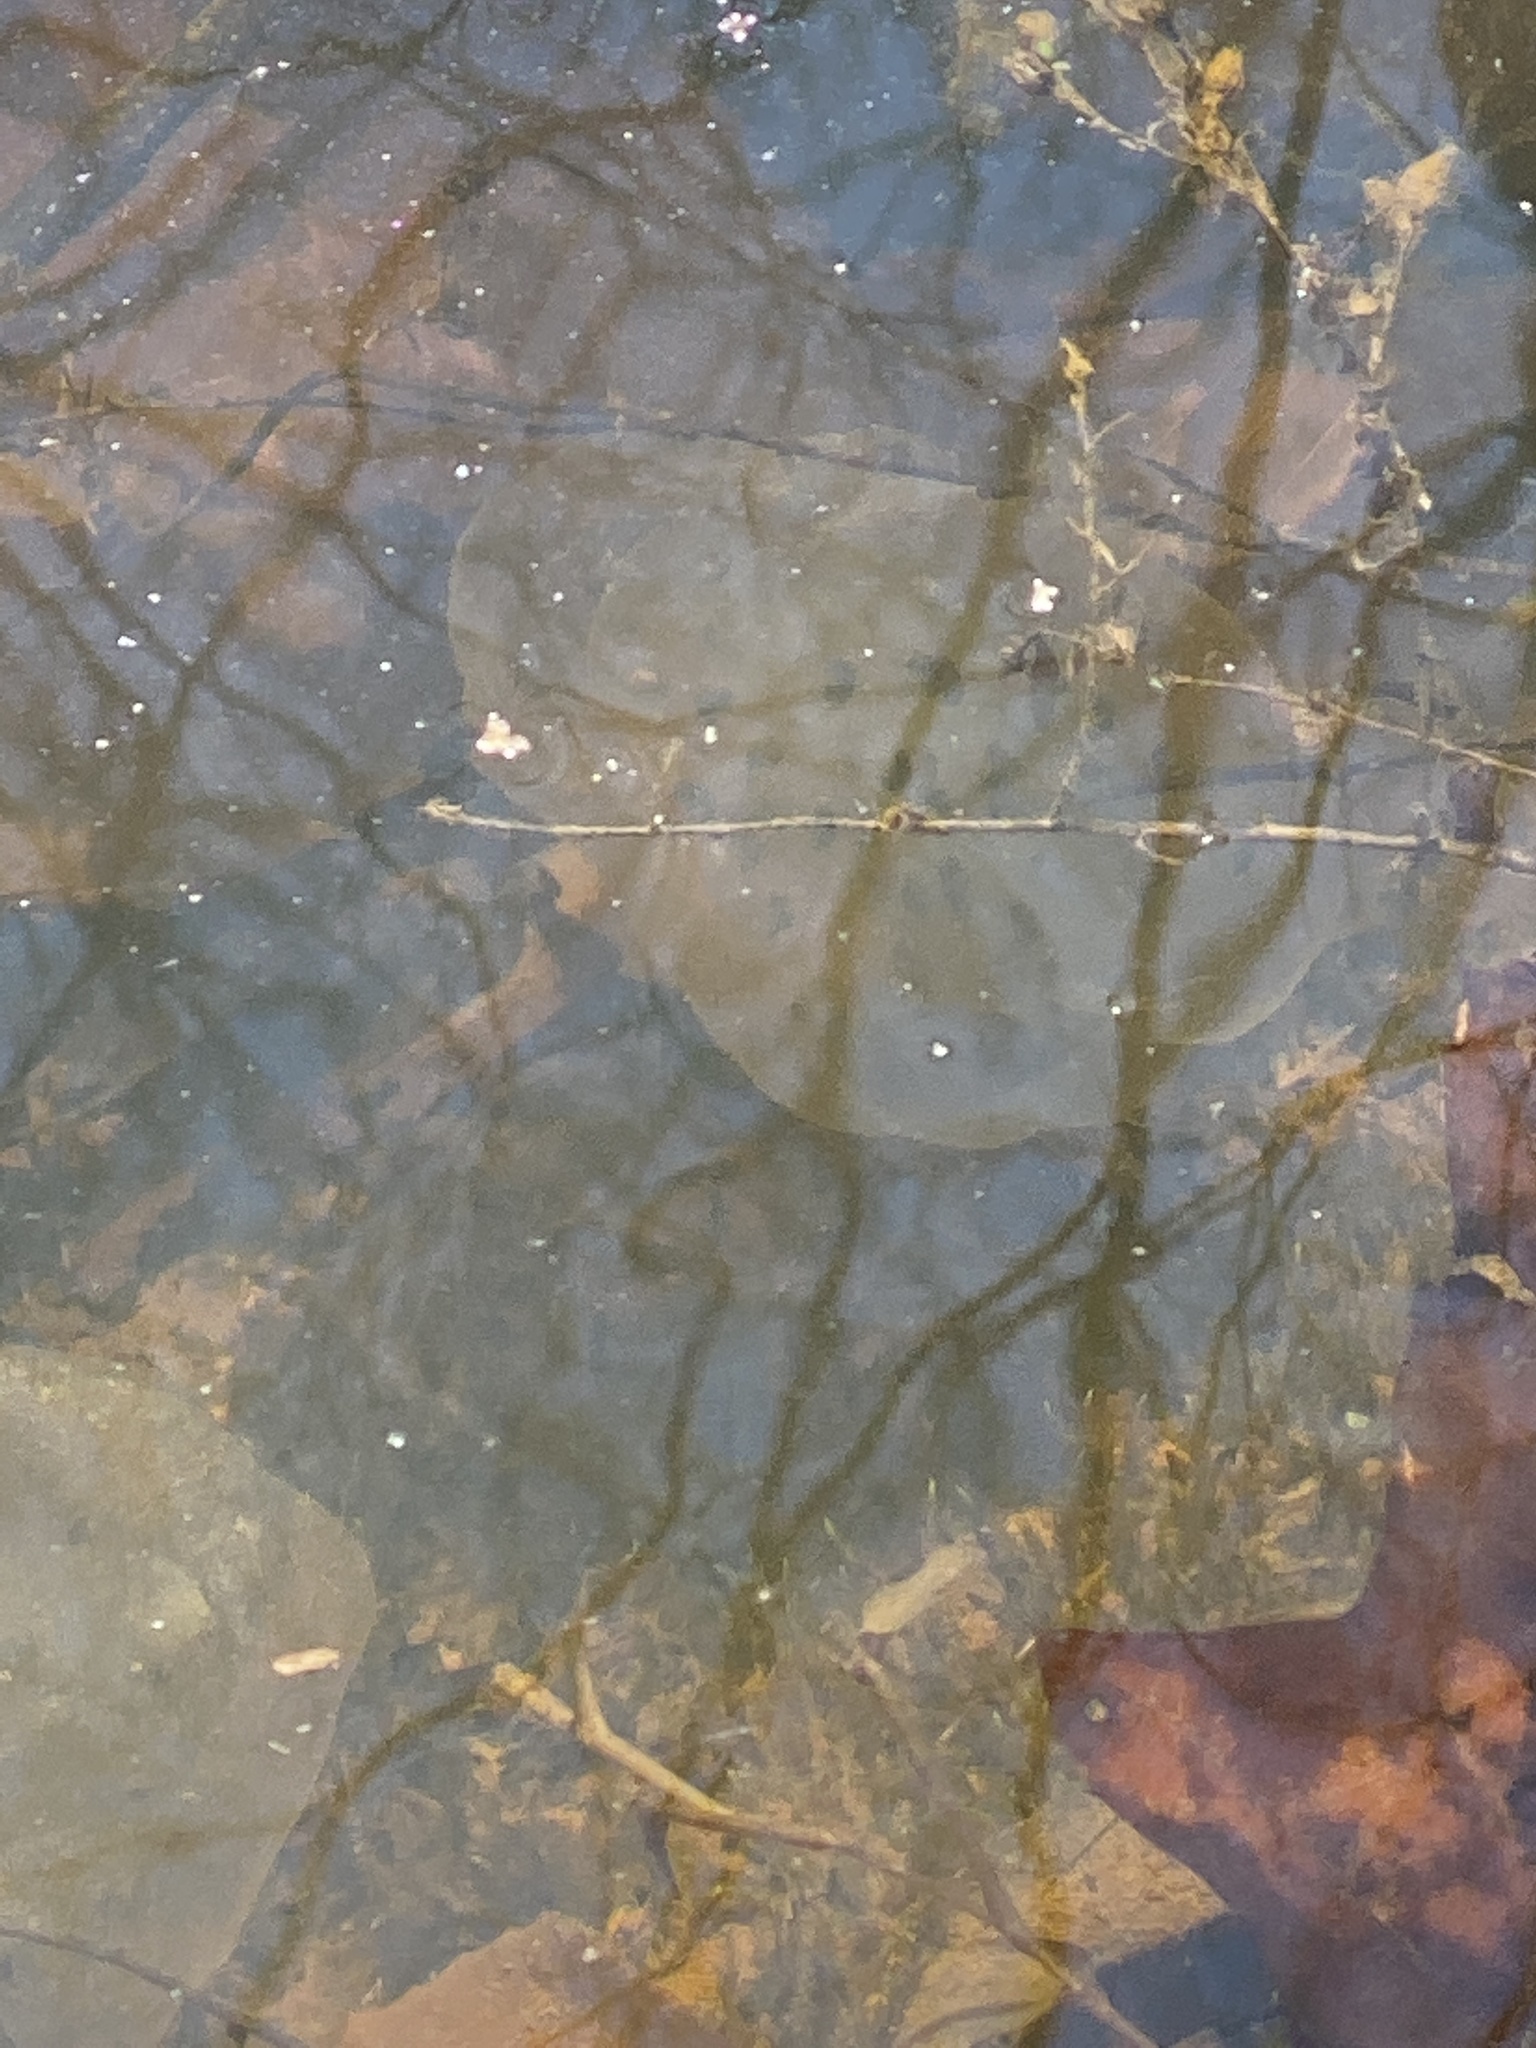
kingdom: Animalia
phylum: Chordata
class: Amphibia
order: Caudata
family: Ambystomatidae
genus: Ambystoma
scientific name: Ambystoma maculatum
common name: Spotted salamander
